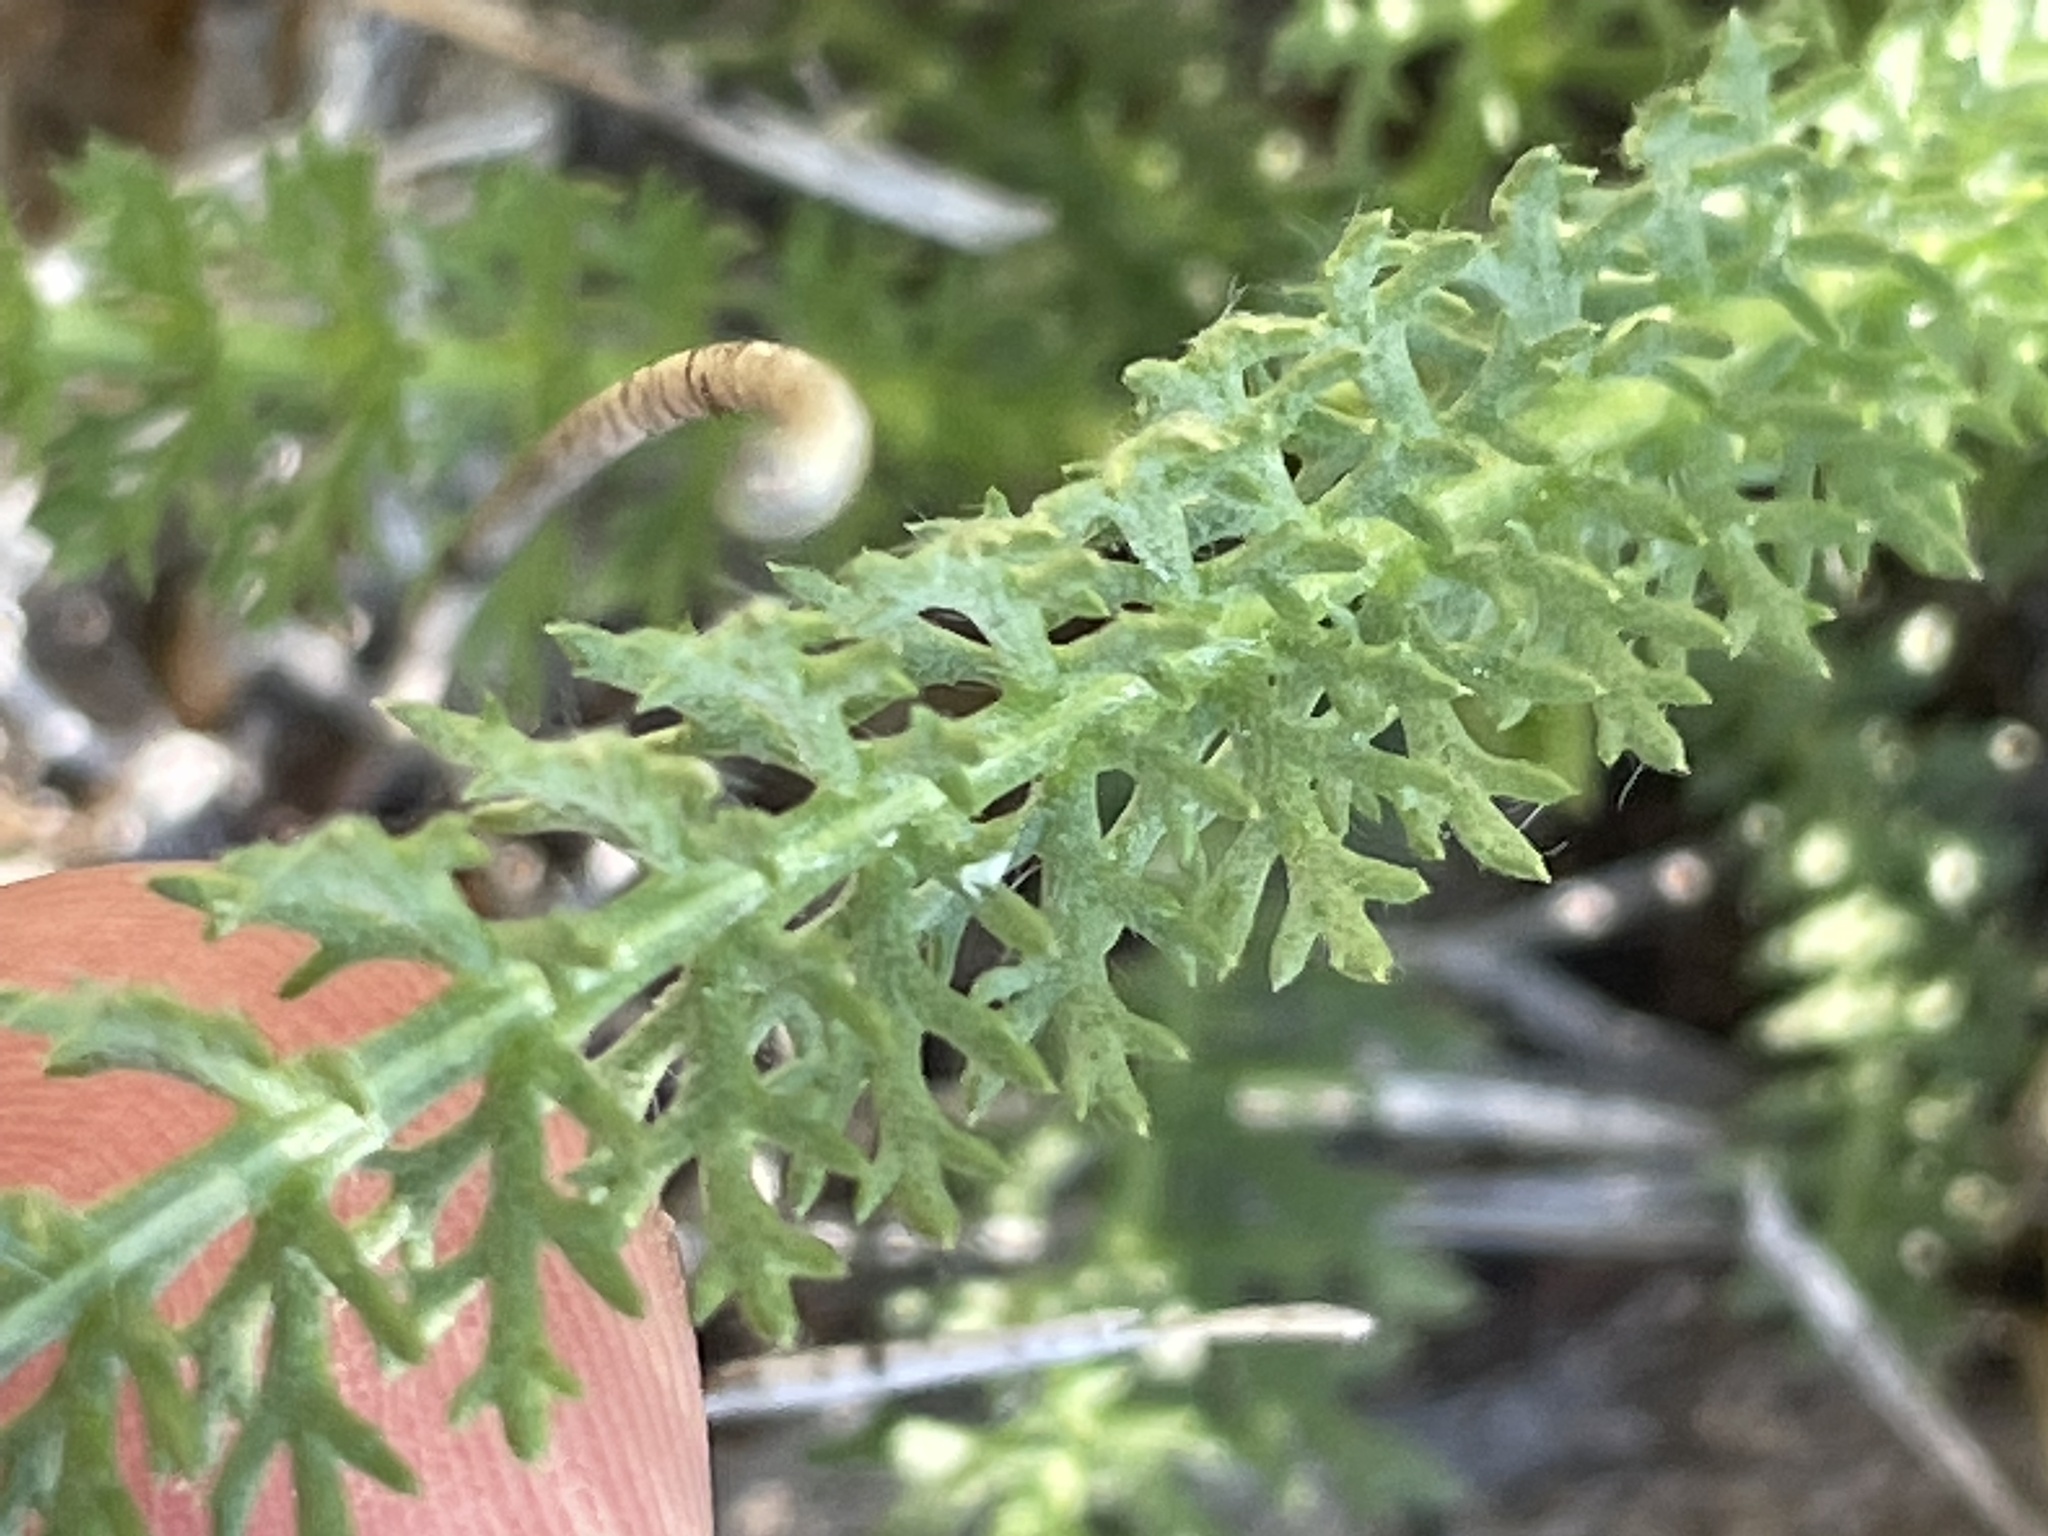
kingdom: Plantae
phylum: Tracheophyta
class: Magnoliopsida
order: Asterales
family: Asteraceae
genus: Achillea
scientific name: Achillea millefolium
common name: Yarrow
